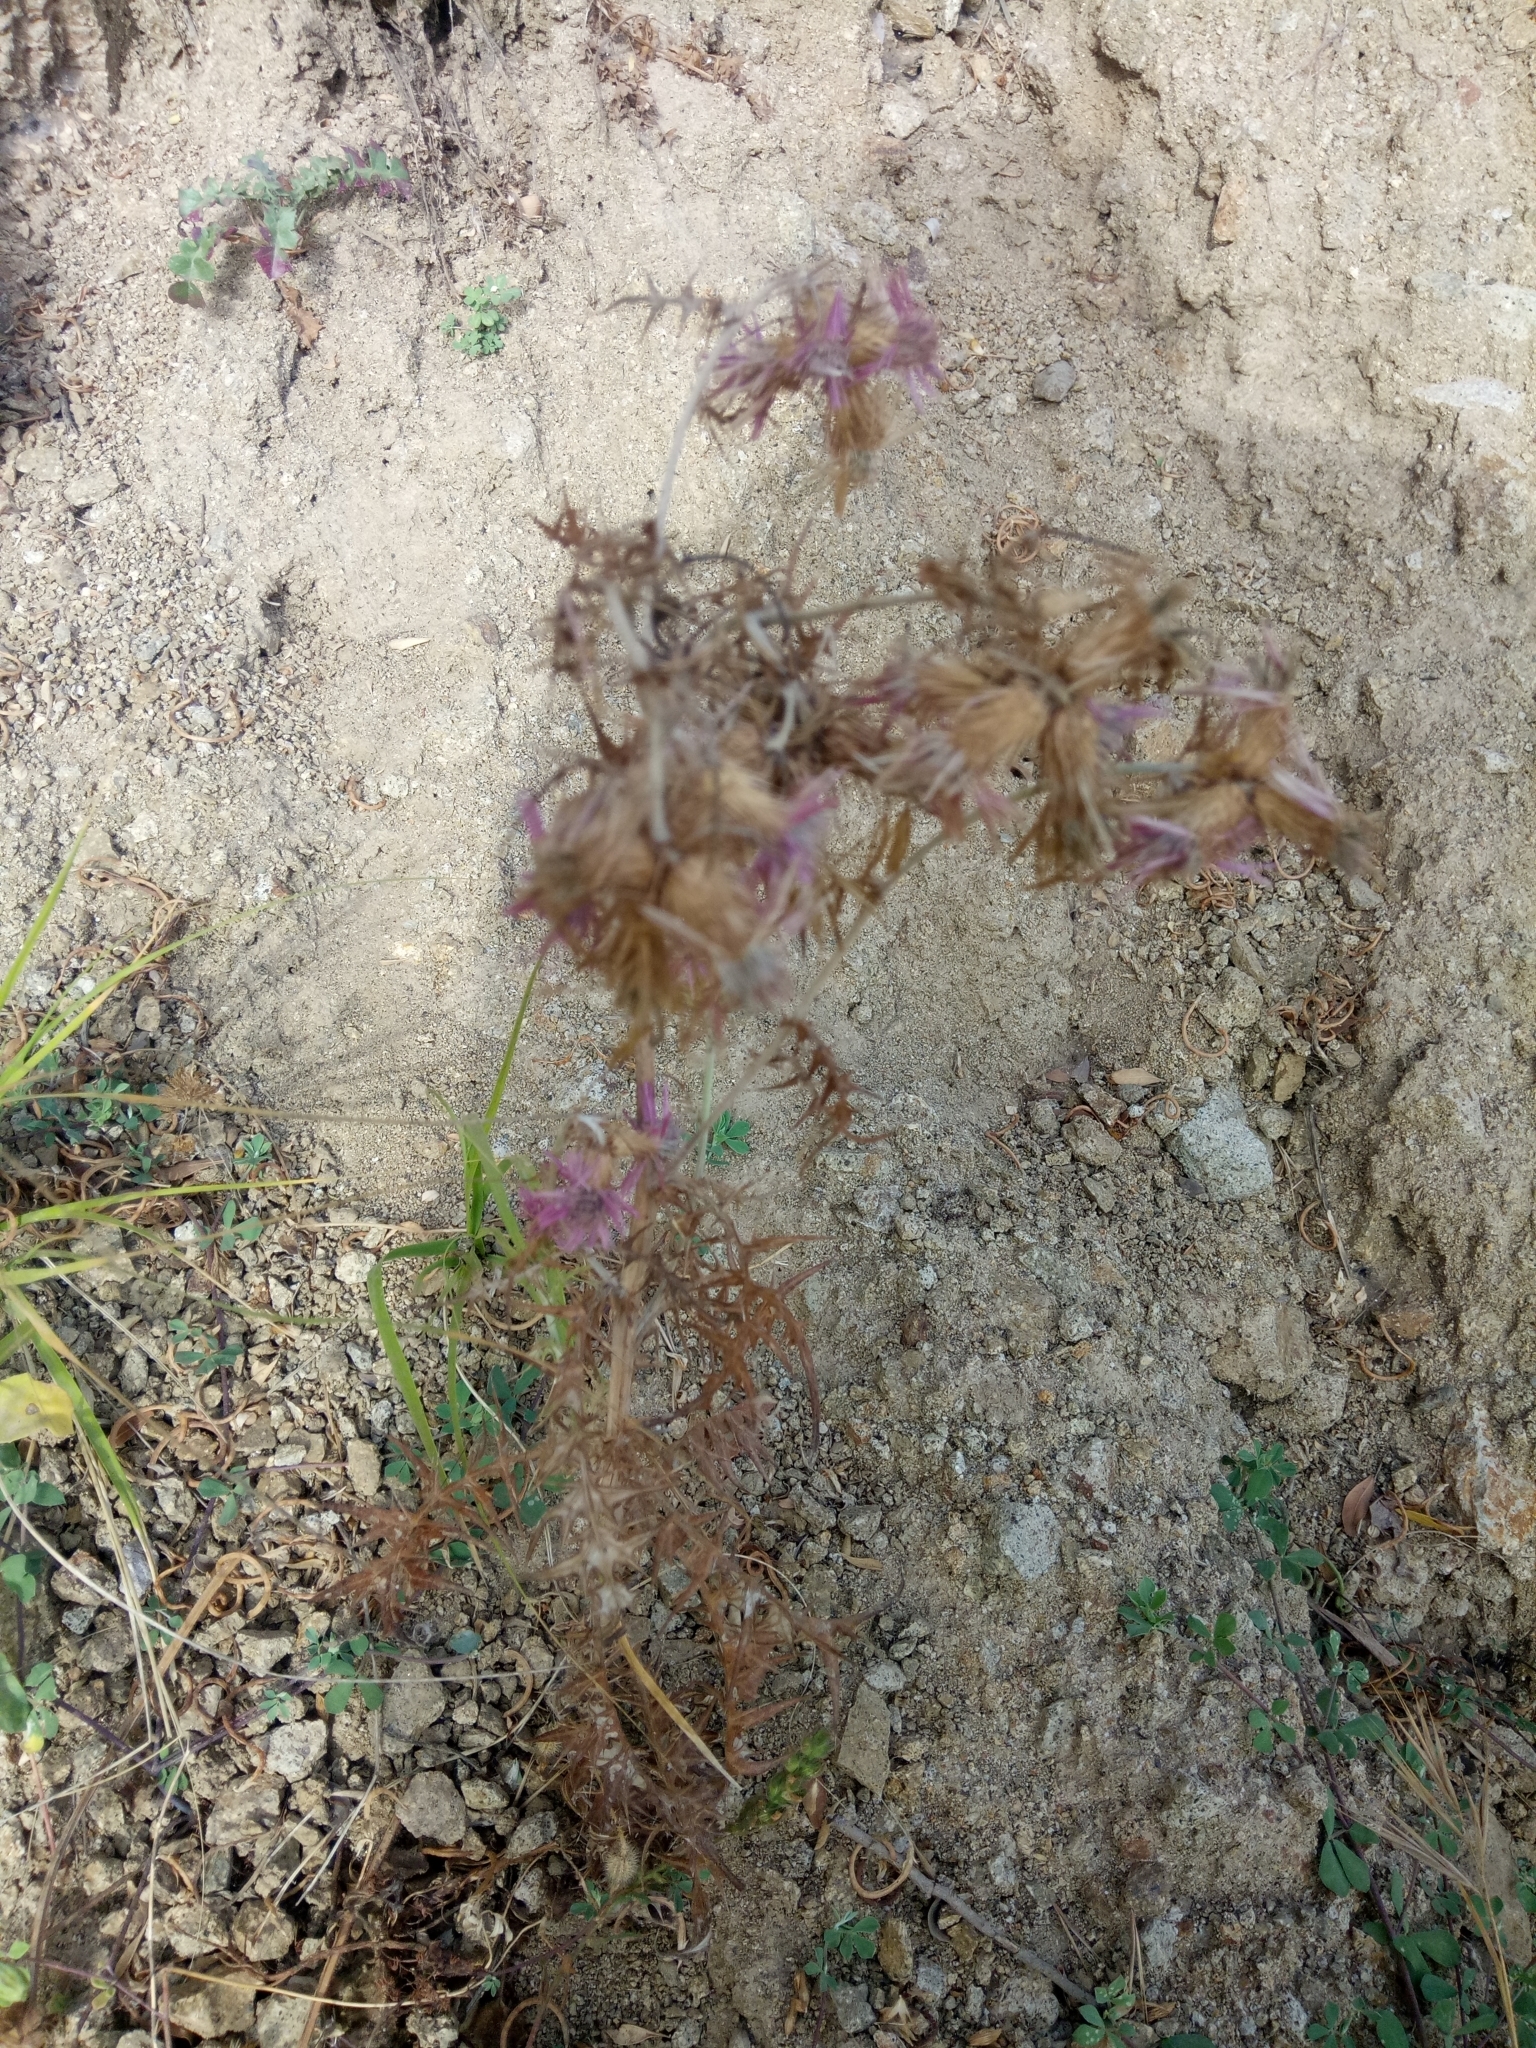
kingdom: Plantae
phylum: Tracheophyta
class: Magnoliopsida
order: Asterales
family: Asteraceae
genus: Galactites
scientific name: Galactites mutabilis
